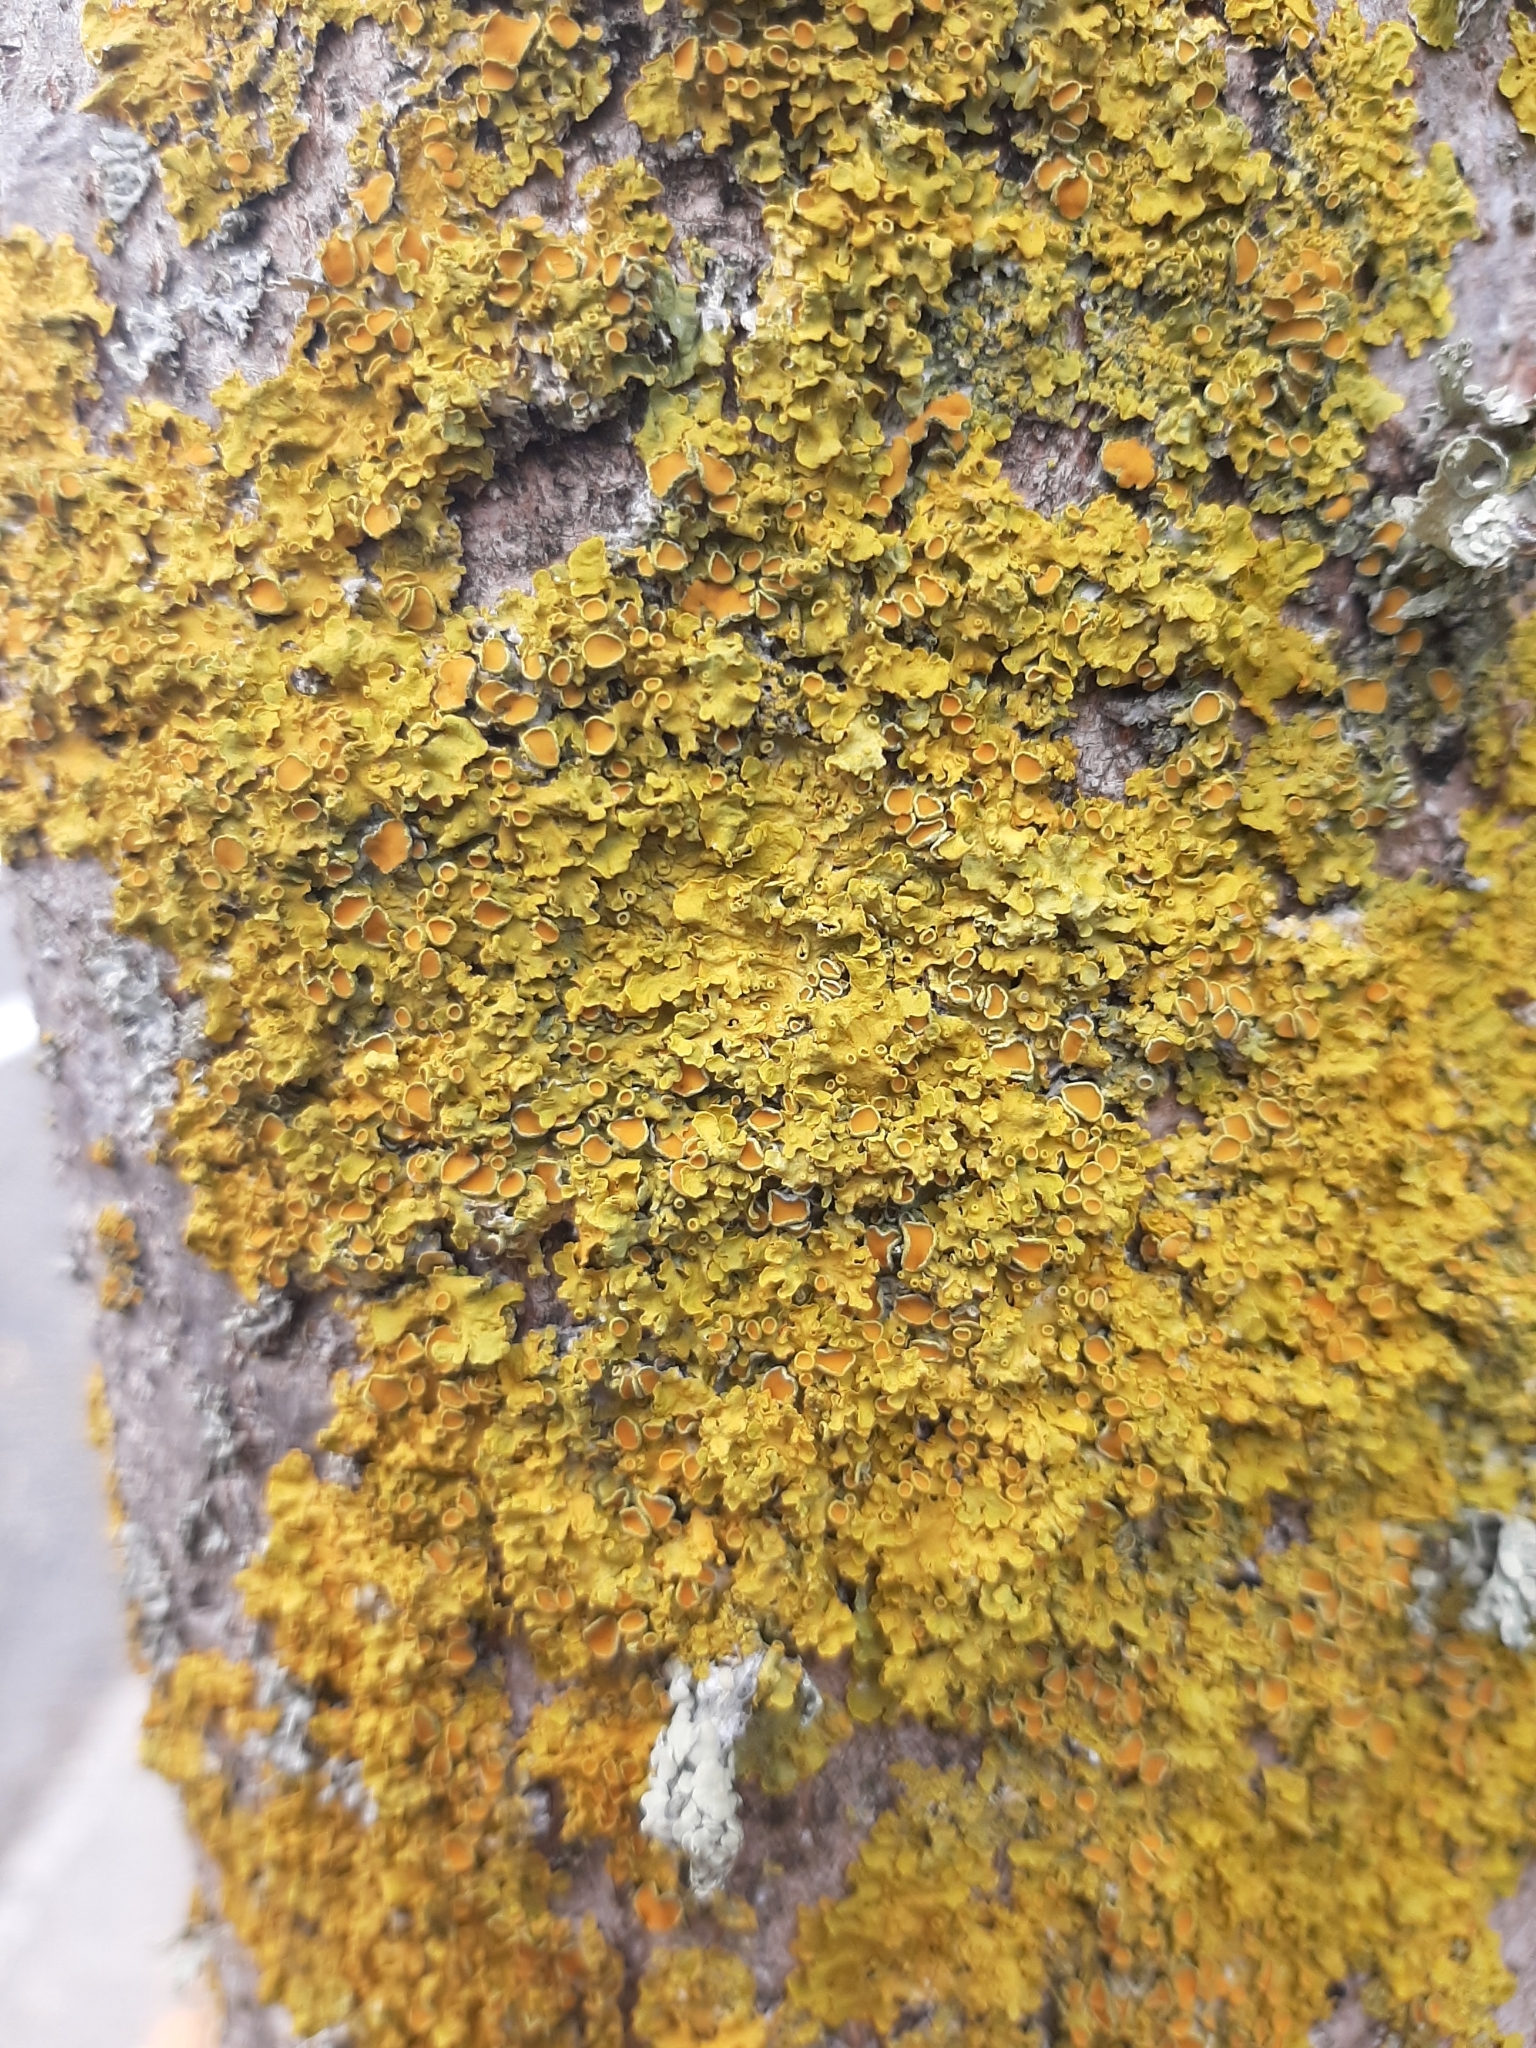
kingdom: Fungi
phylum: Ascomycota
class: Lecanoromycetes
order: Teloschistales
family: Teloschistaceae
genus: Xanthoria
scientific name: Xanthoria parietina
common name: Common orange lichen
